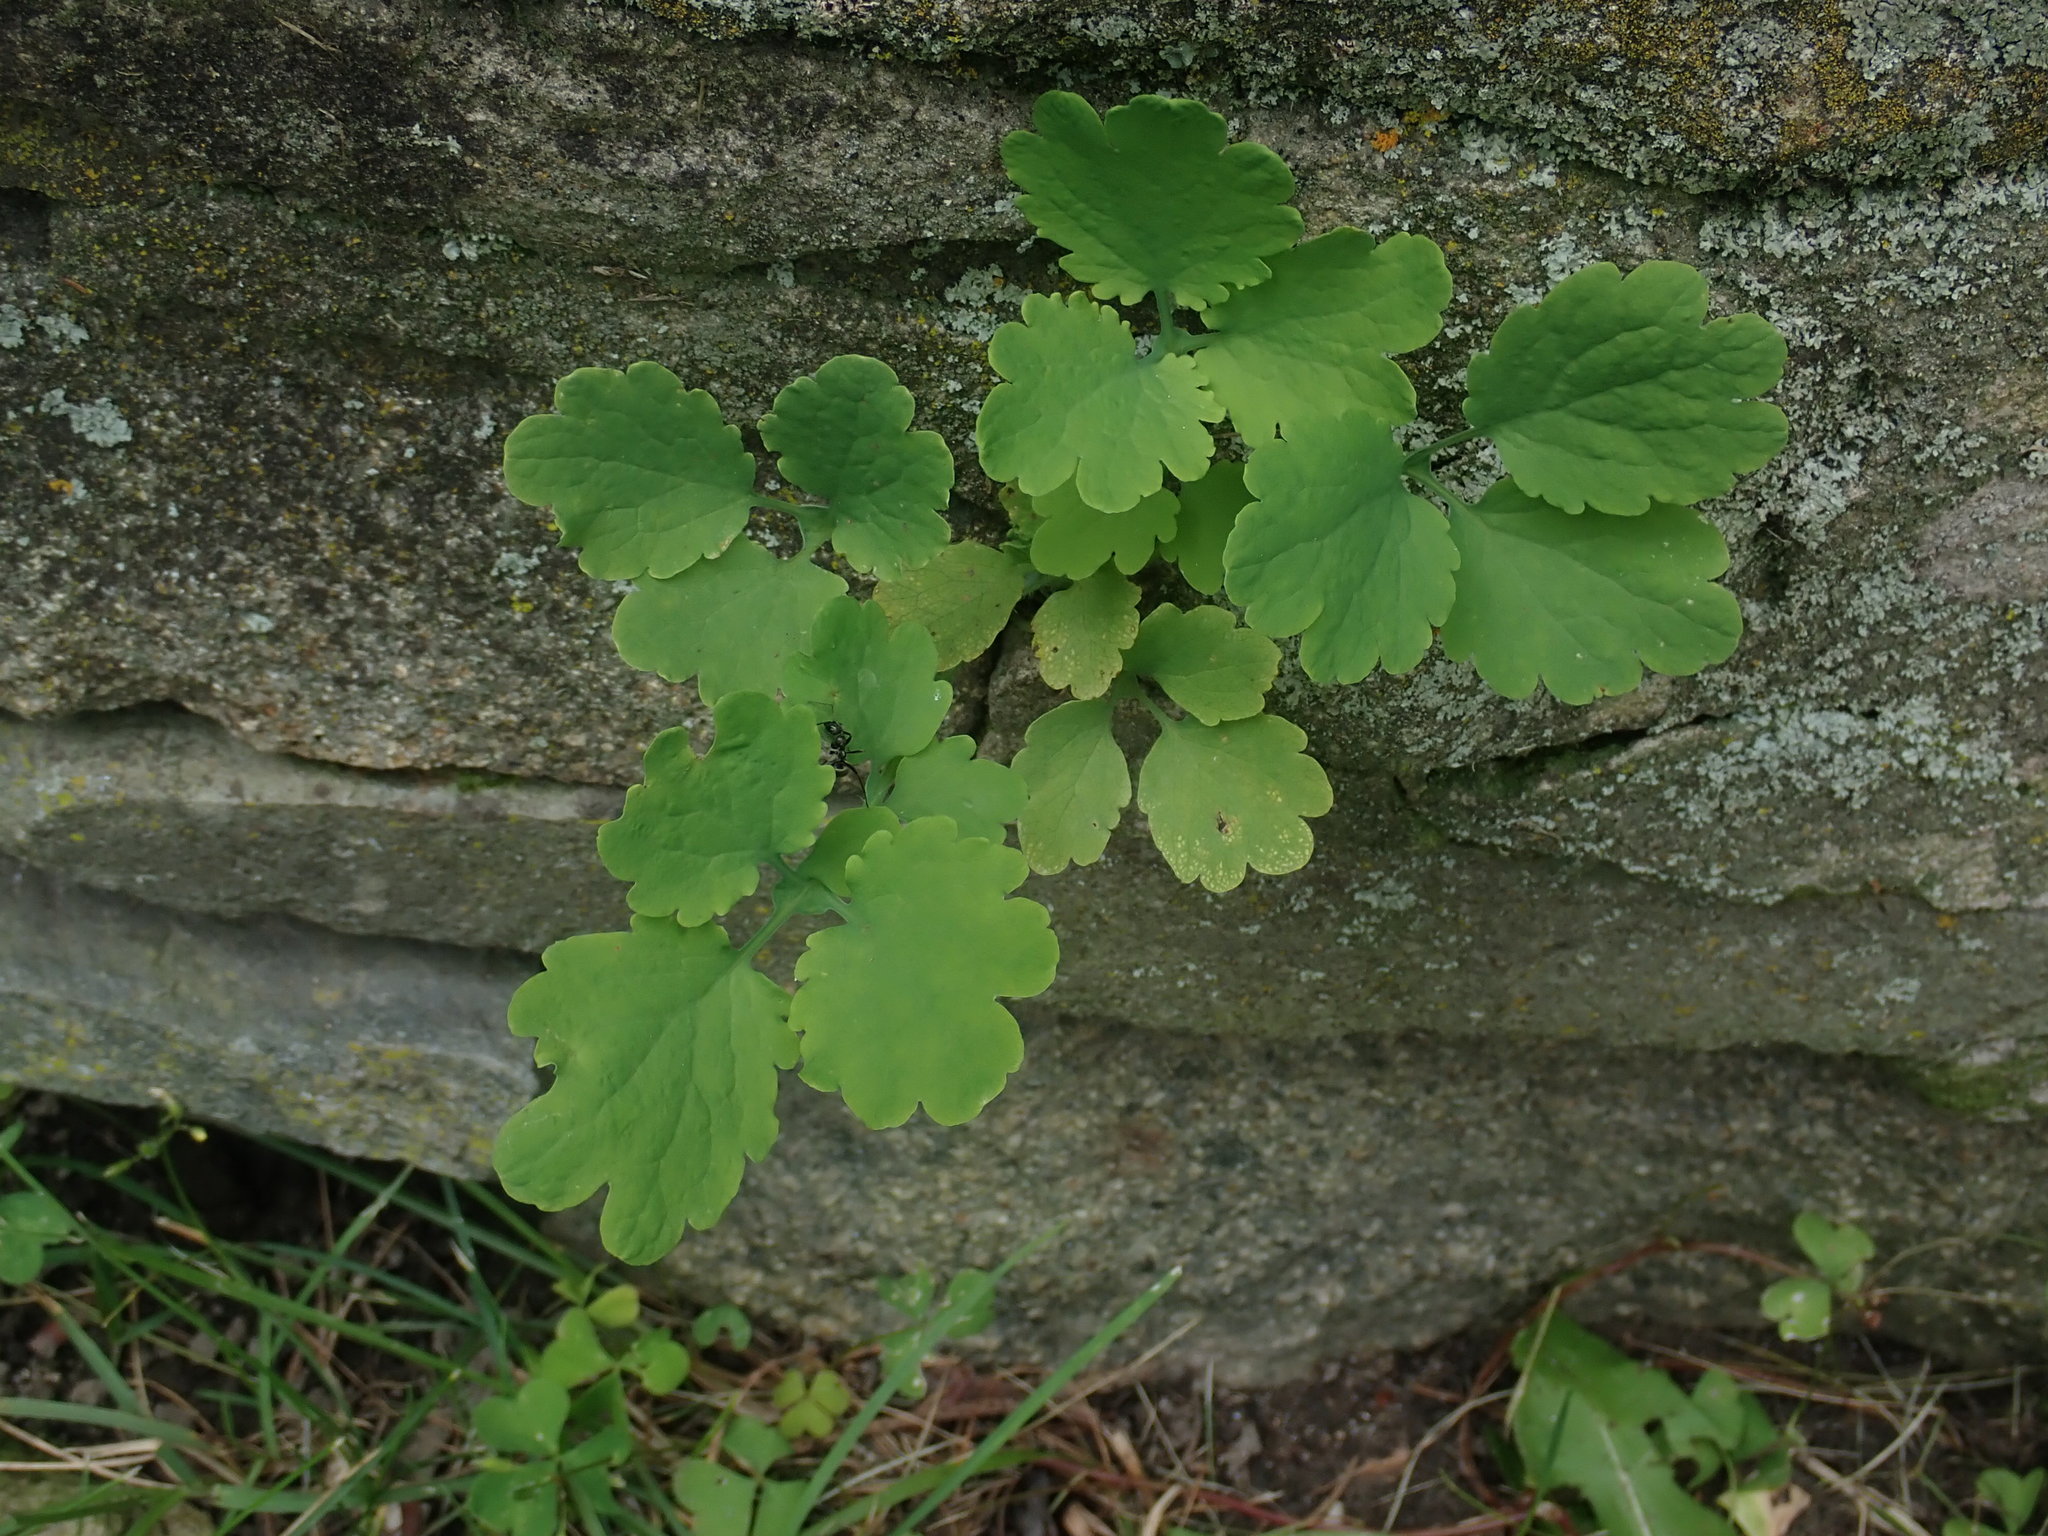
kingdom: Plantae
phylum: Tracheophyta
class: Magnoliopsida
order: Ranunculales
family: Papaveraceae
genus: Chelidonium
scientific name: Chelidonium majus
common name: Greater celandine
